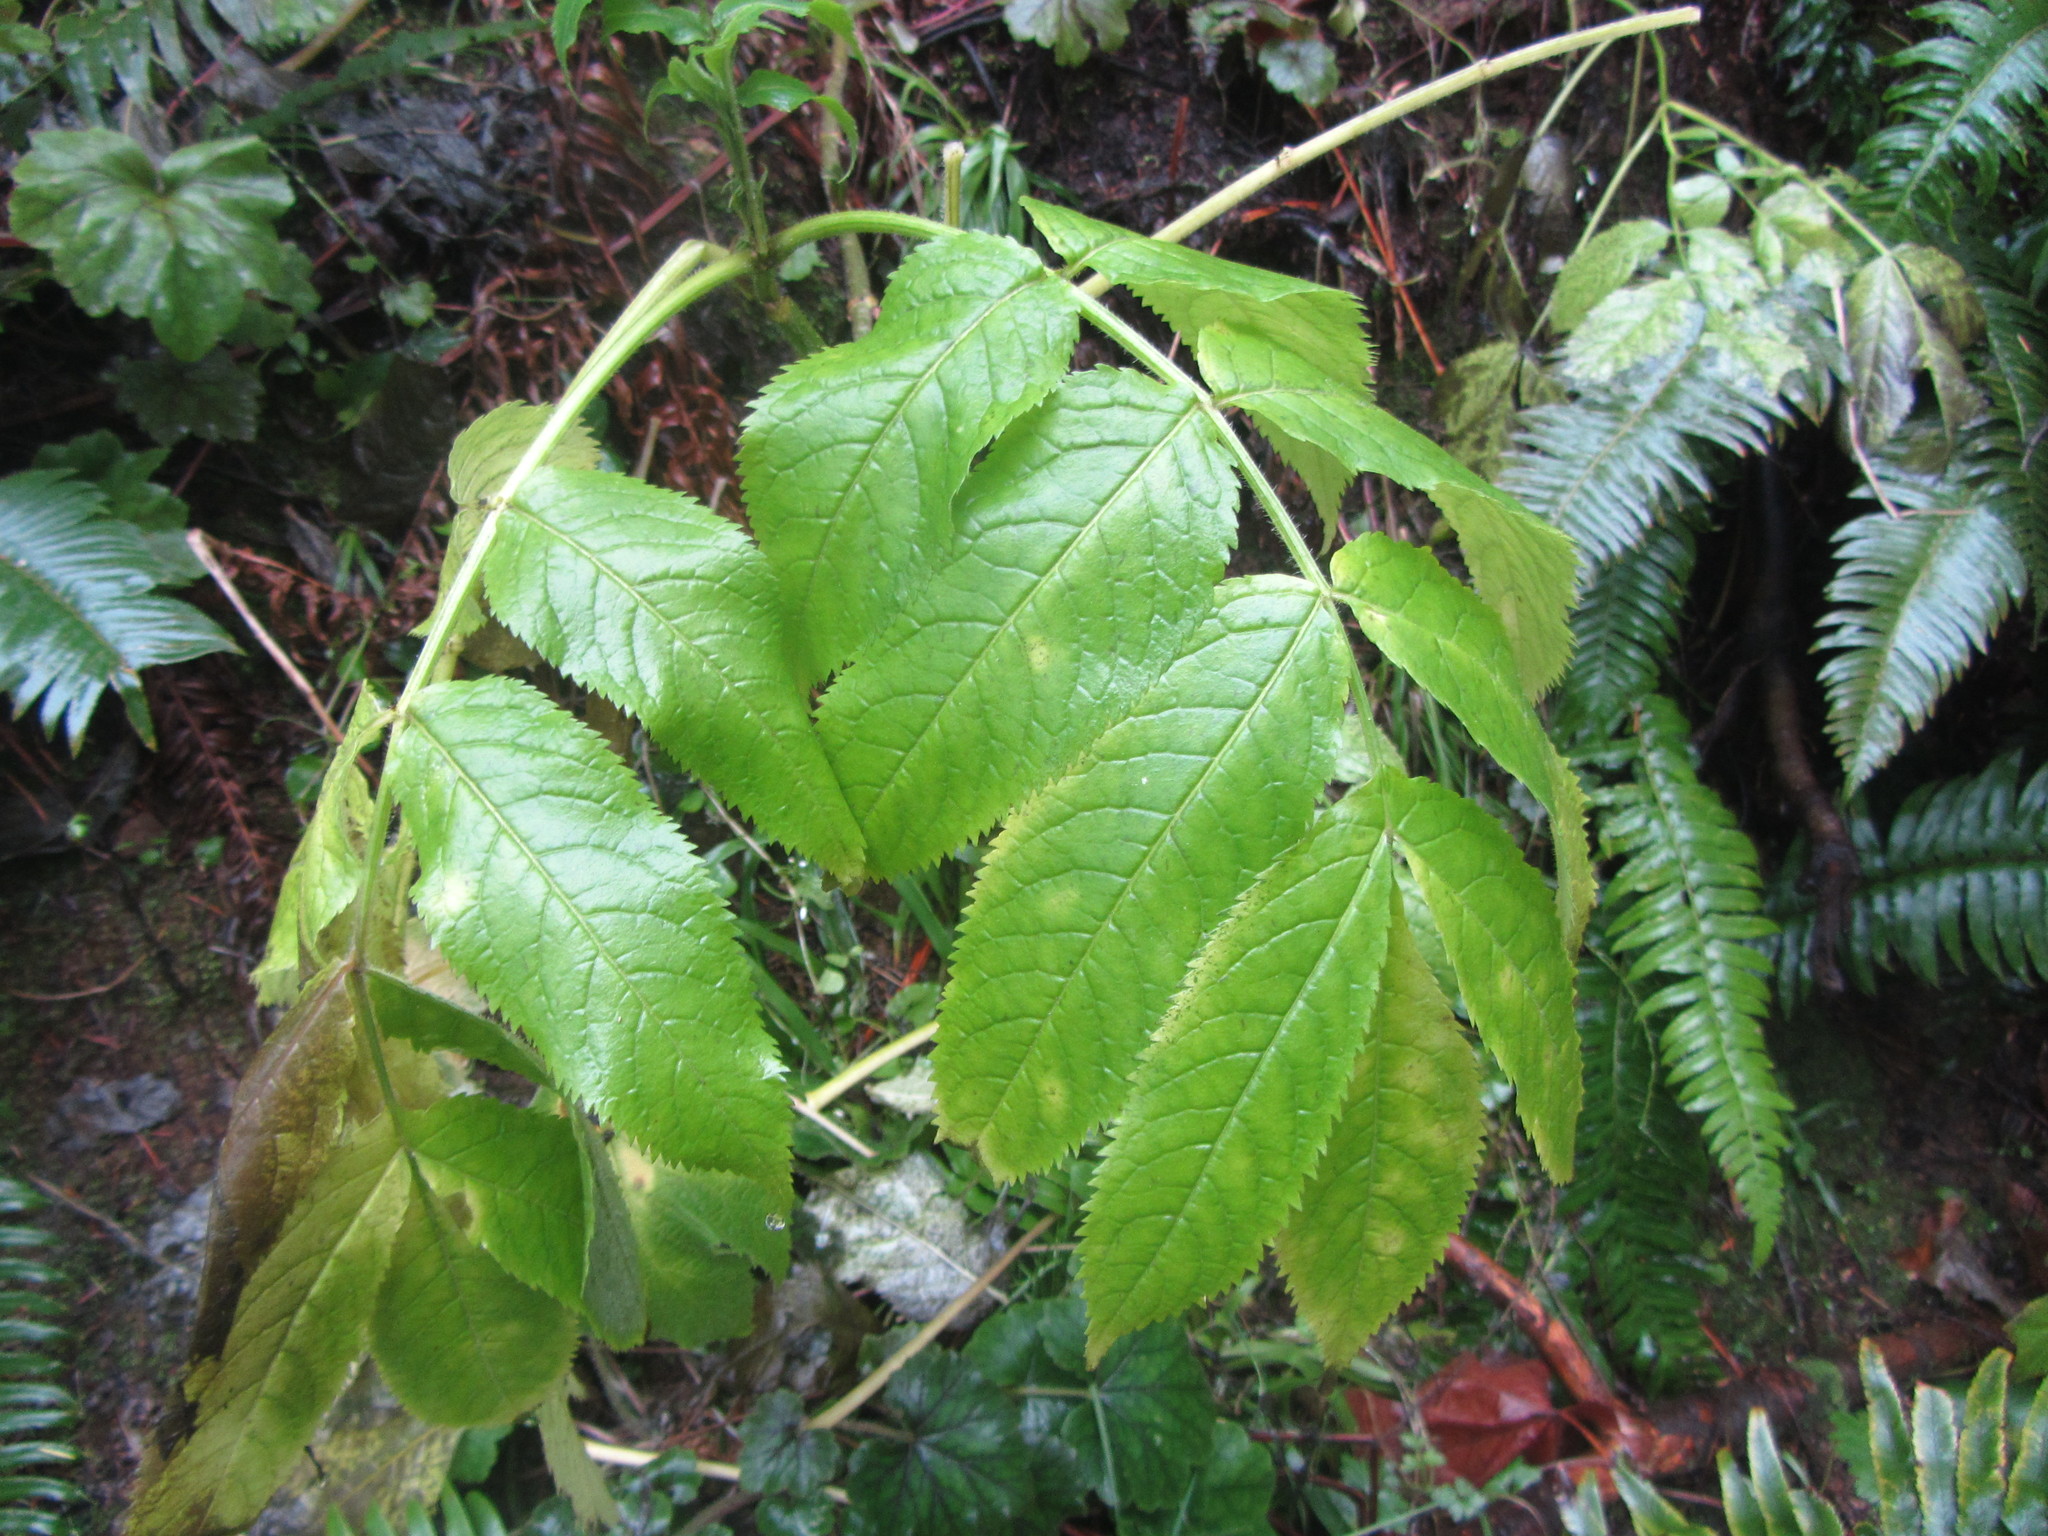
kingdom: Plantae
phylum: Tracheophyta
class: Magnoliopsida
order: Dipsacales
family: Viburnaceae
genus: Sambucus
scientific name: Sambucus racemosa
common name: Red-berried elder
